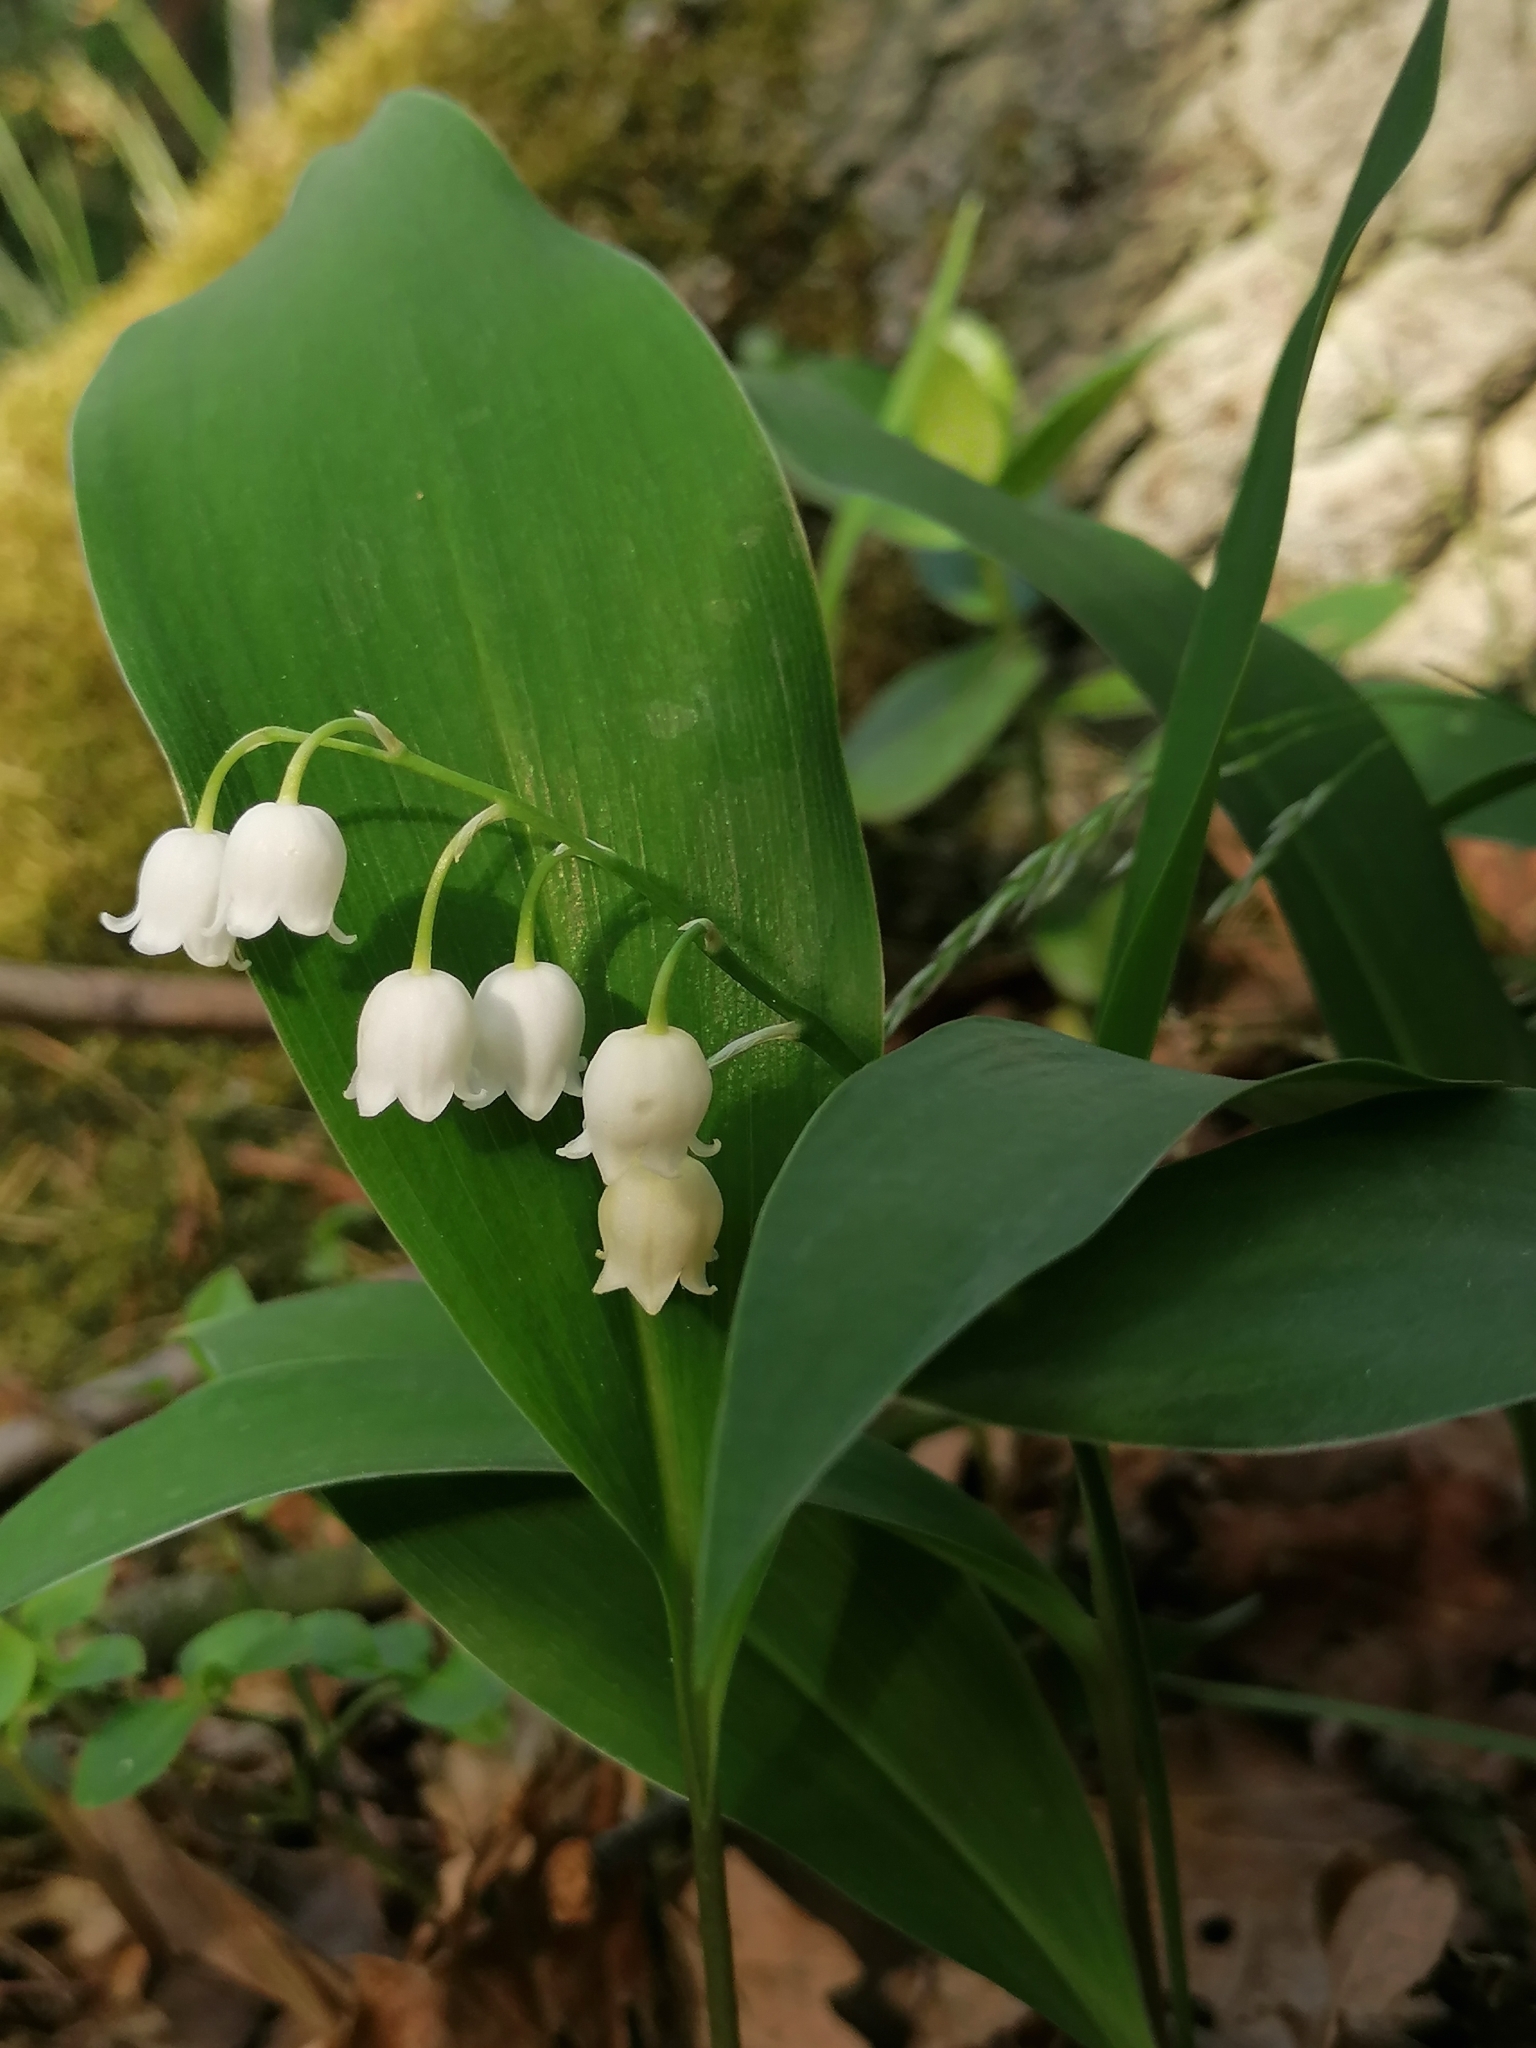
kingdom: Plantae
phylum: Tracheophyta
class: Liliopsida
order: Asparagales
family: Asparagaceae
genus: Convallaria
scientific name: Convallaria majalis
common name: Lily-of-the-valley
